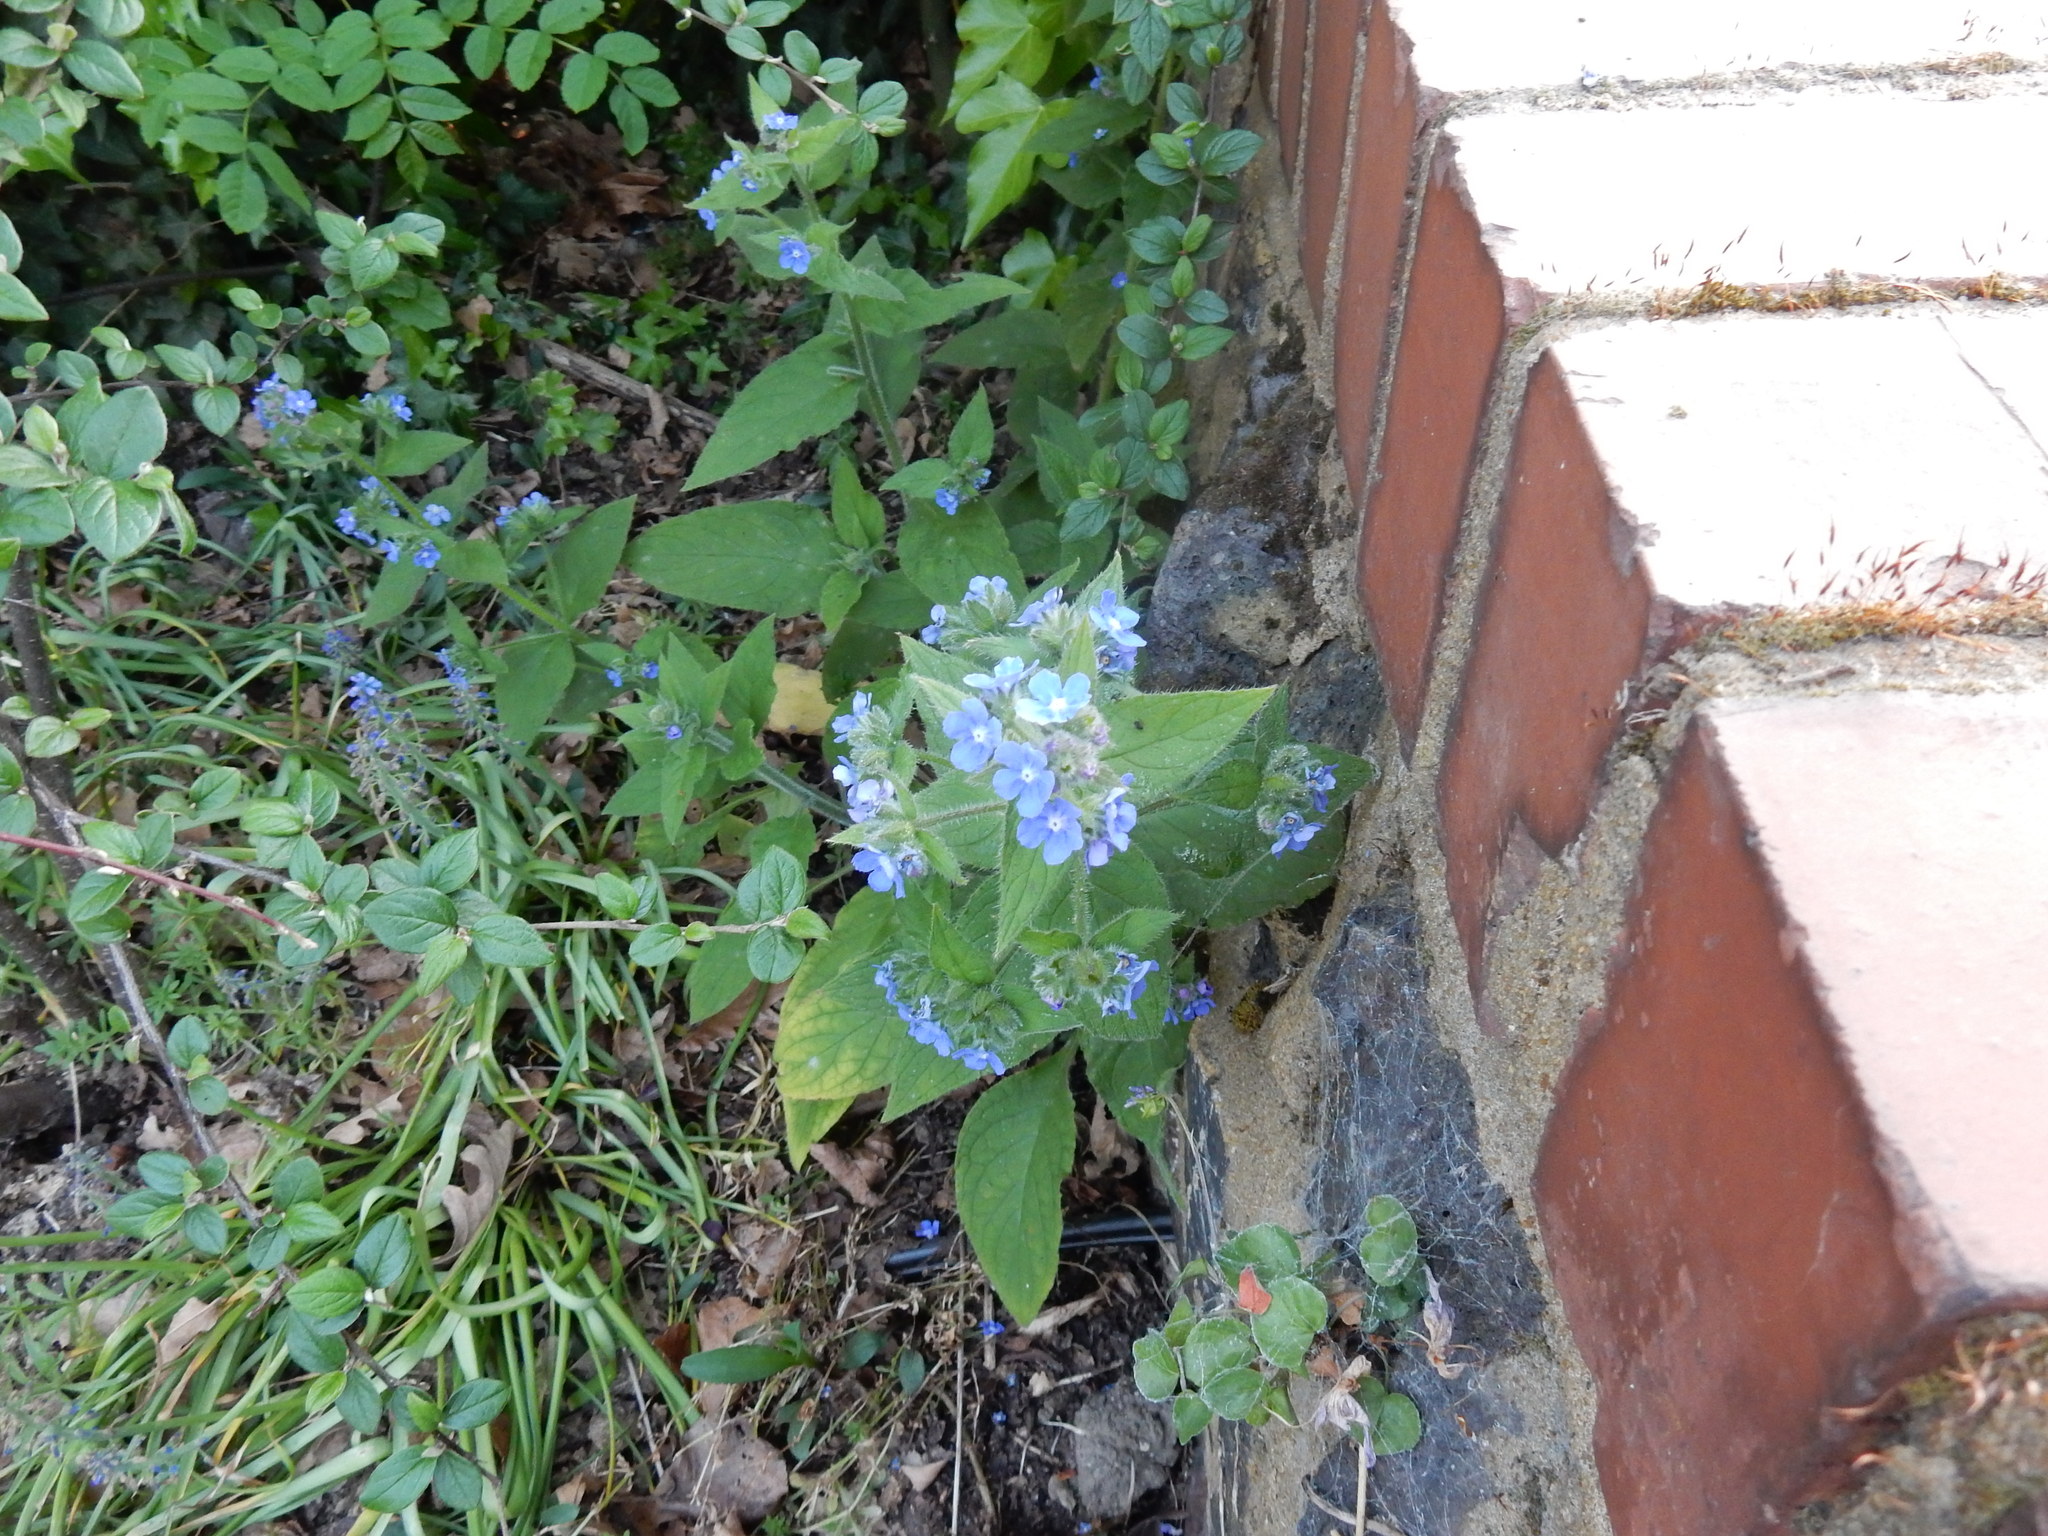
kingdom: Plantae
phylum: Tracheophyta
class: Magnoliopsida
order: Boraginales
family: Boraginaceae
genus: Pentaglottis
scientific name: Pentaglottis sempervirens
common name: Green alkanet
